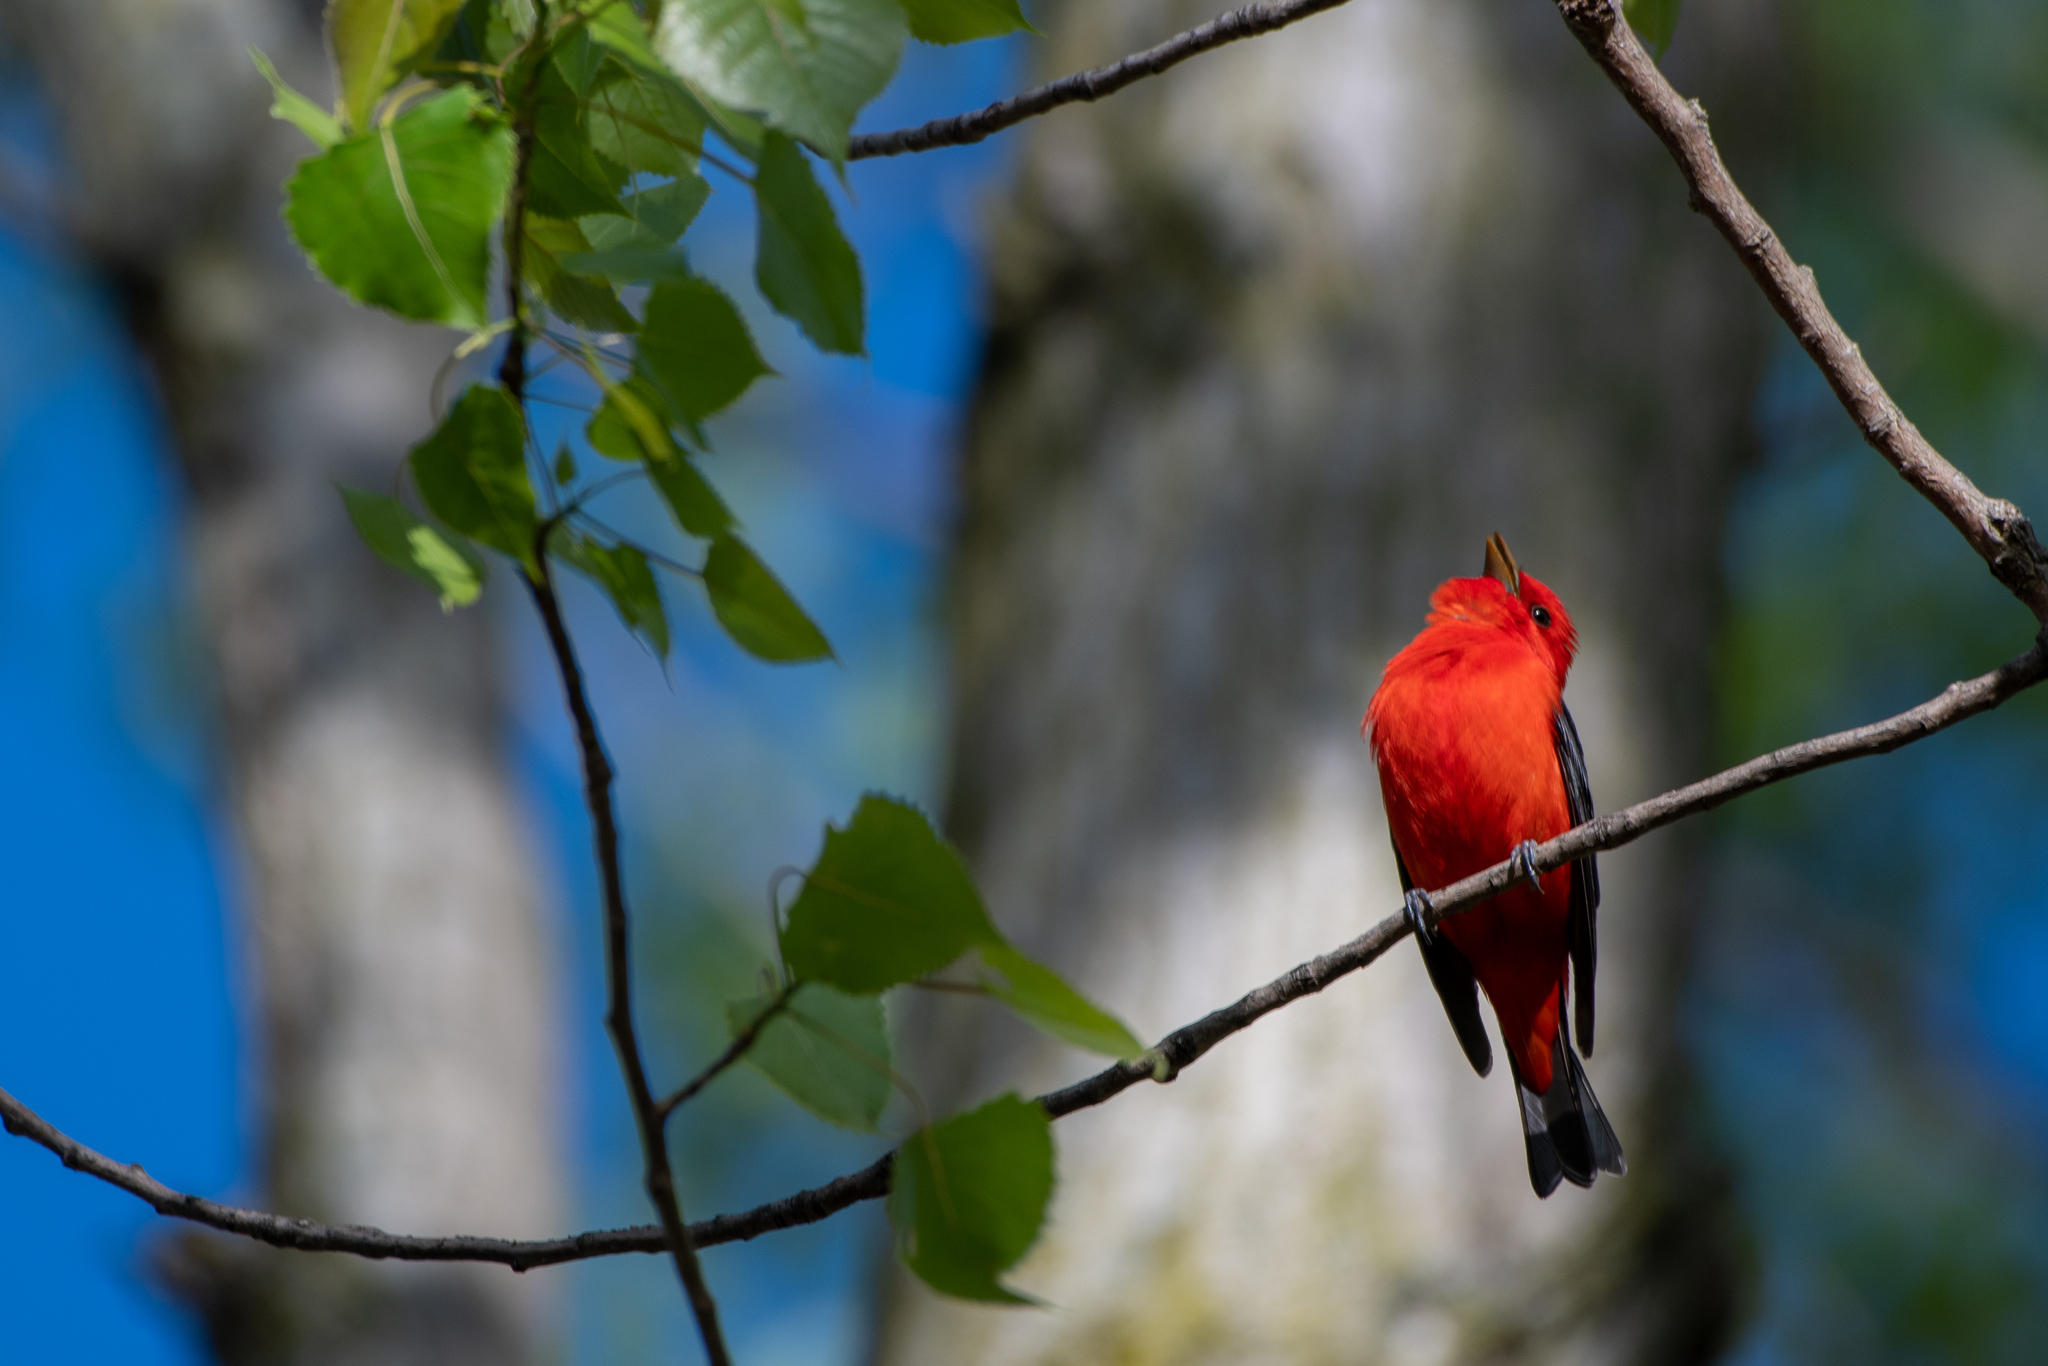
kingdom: Animalia
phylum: Chordata
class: Aves
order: Passeriformes
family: Cardinalidae
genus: Piranga
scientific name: Piranga olivacea
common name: Scarlet tanager
